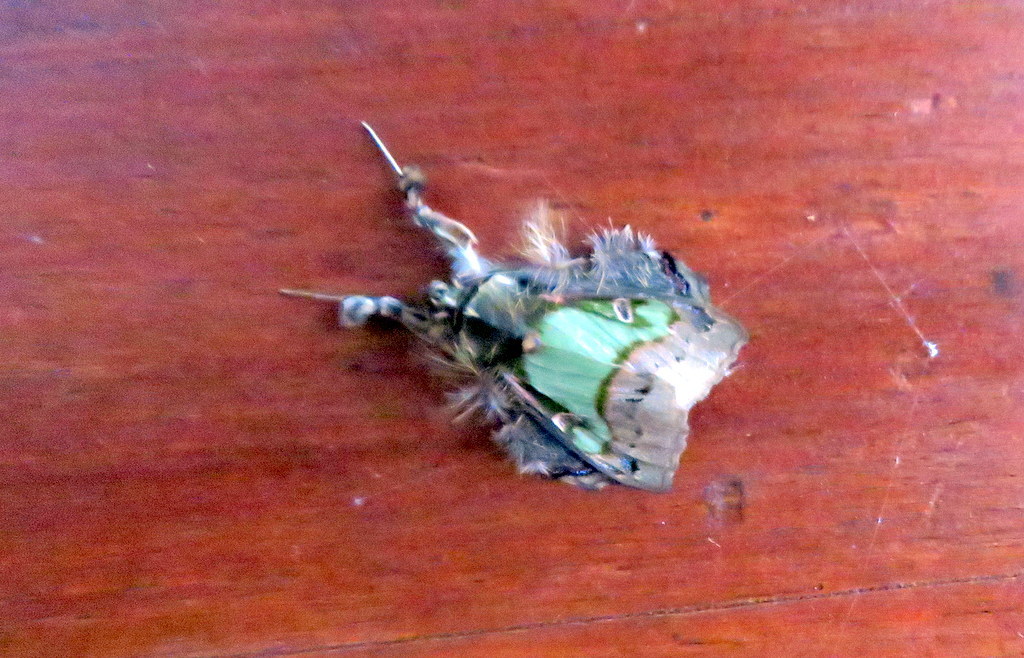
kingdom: Animalia
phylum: Arthropoda
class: Insecta
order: Lepidoptera
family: Erebidae
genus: Ceroctena
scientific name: Ceroctena amynta
